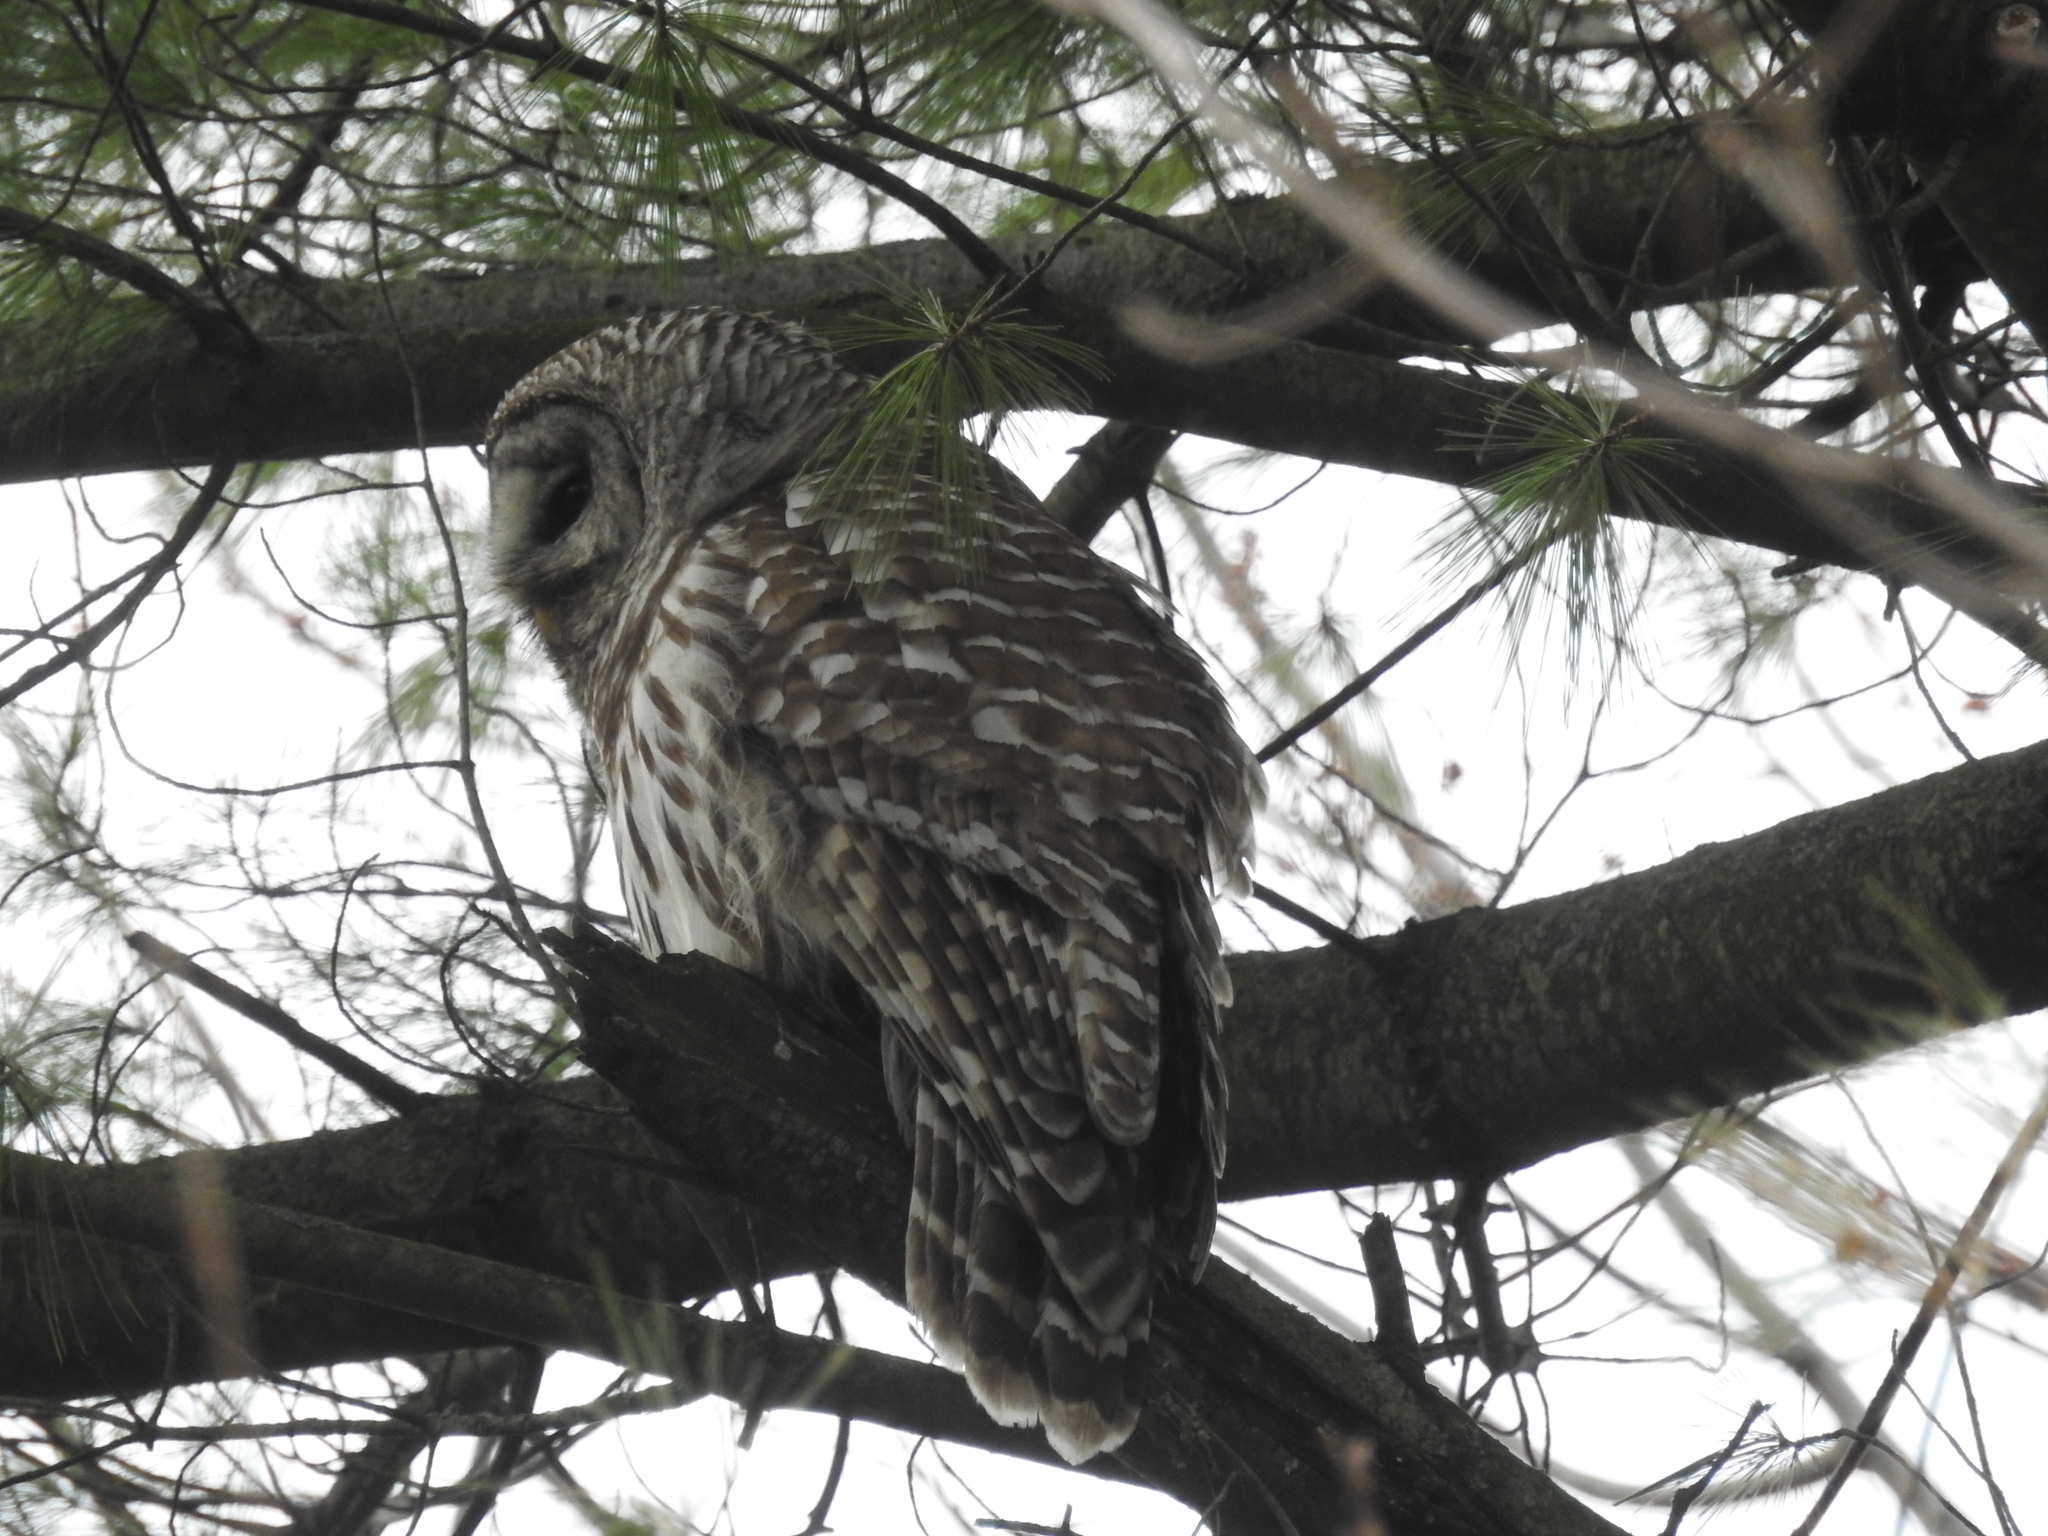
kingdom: Animalia
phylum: Chordata
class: Aves
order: Strigiformes
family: Strigidae
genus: Strix
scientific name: Strix varia
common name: Barred owl
